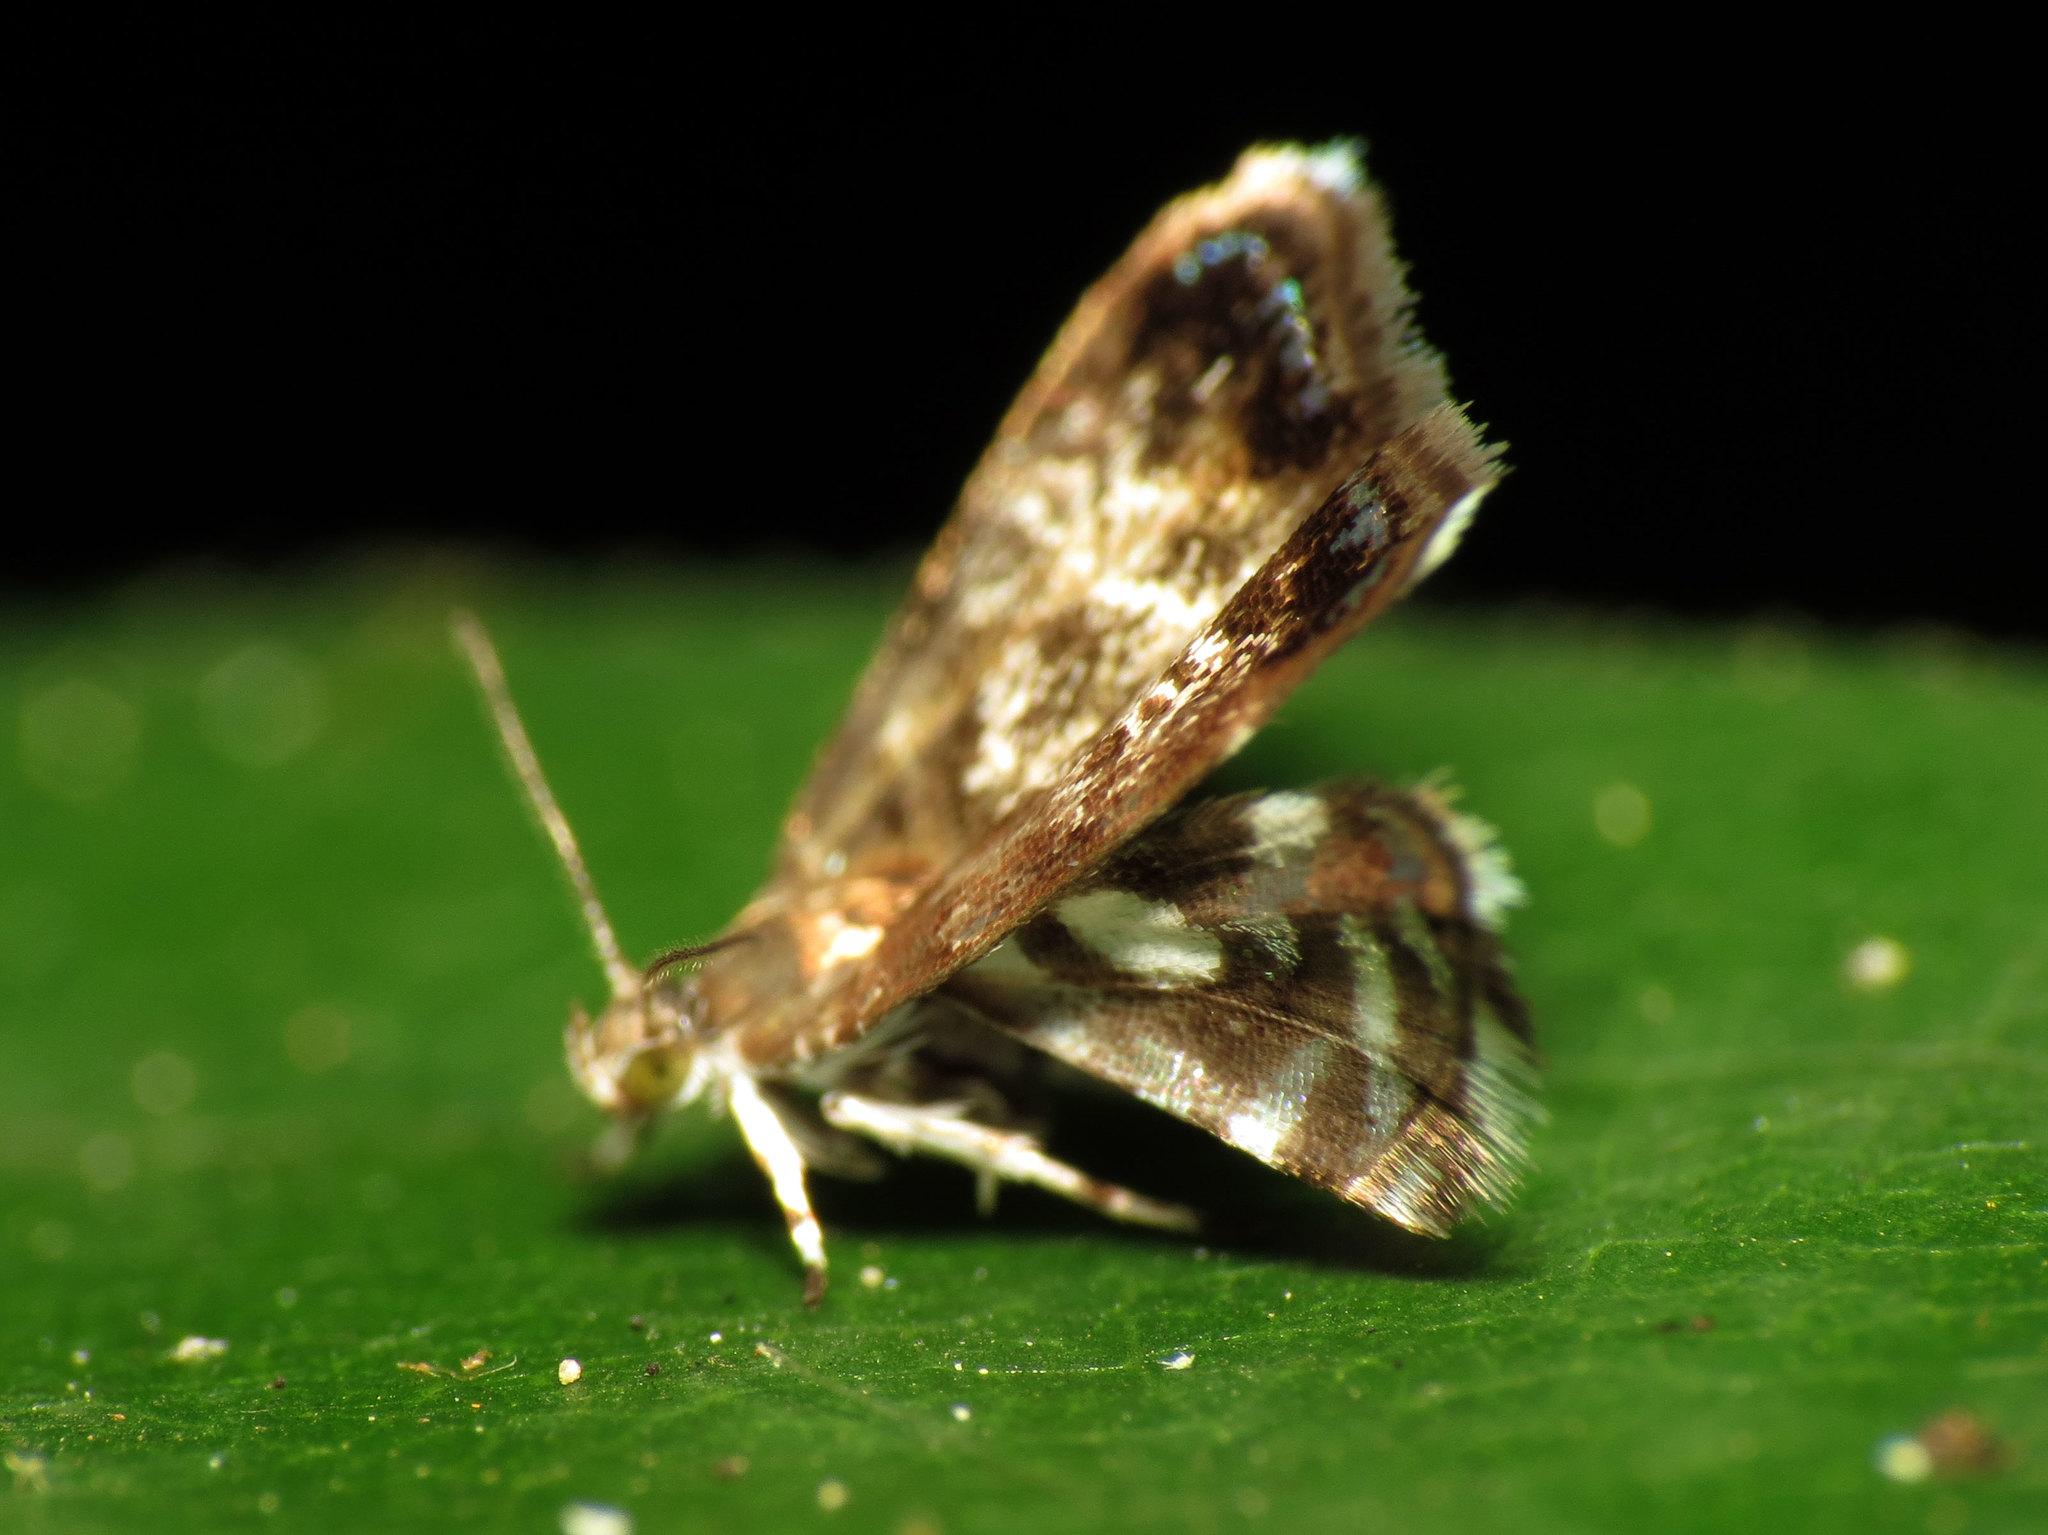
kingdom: Animalia
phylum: Arthropoda
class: Insecta
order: Lepidoptera
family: Choreutidae
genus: Brenthia
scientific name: Brenthia pavonacella
